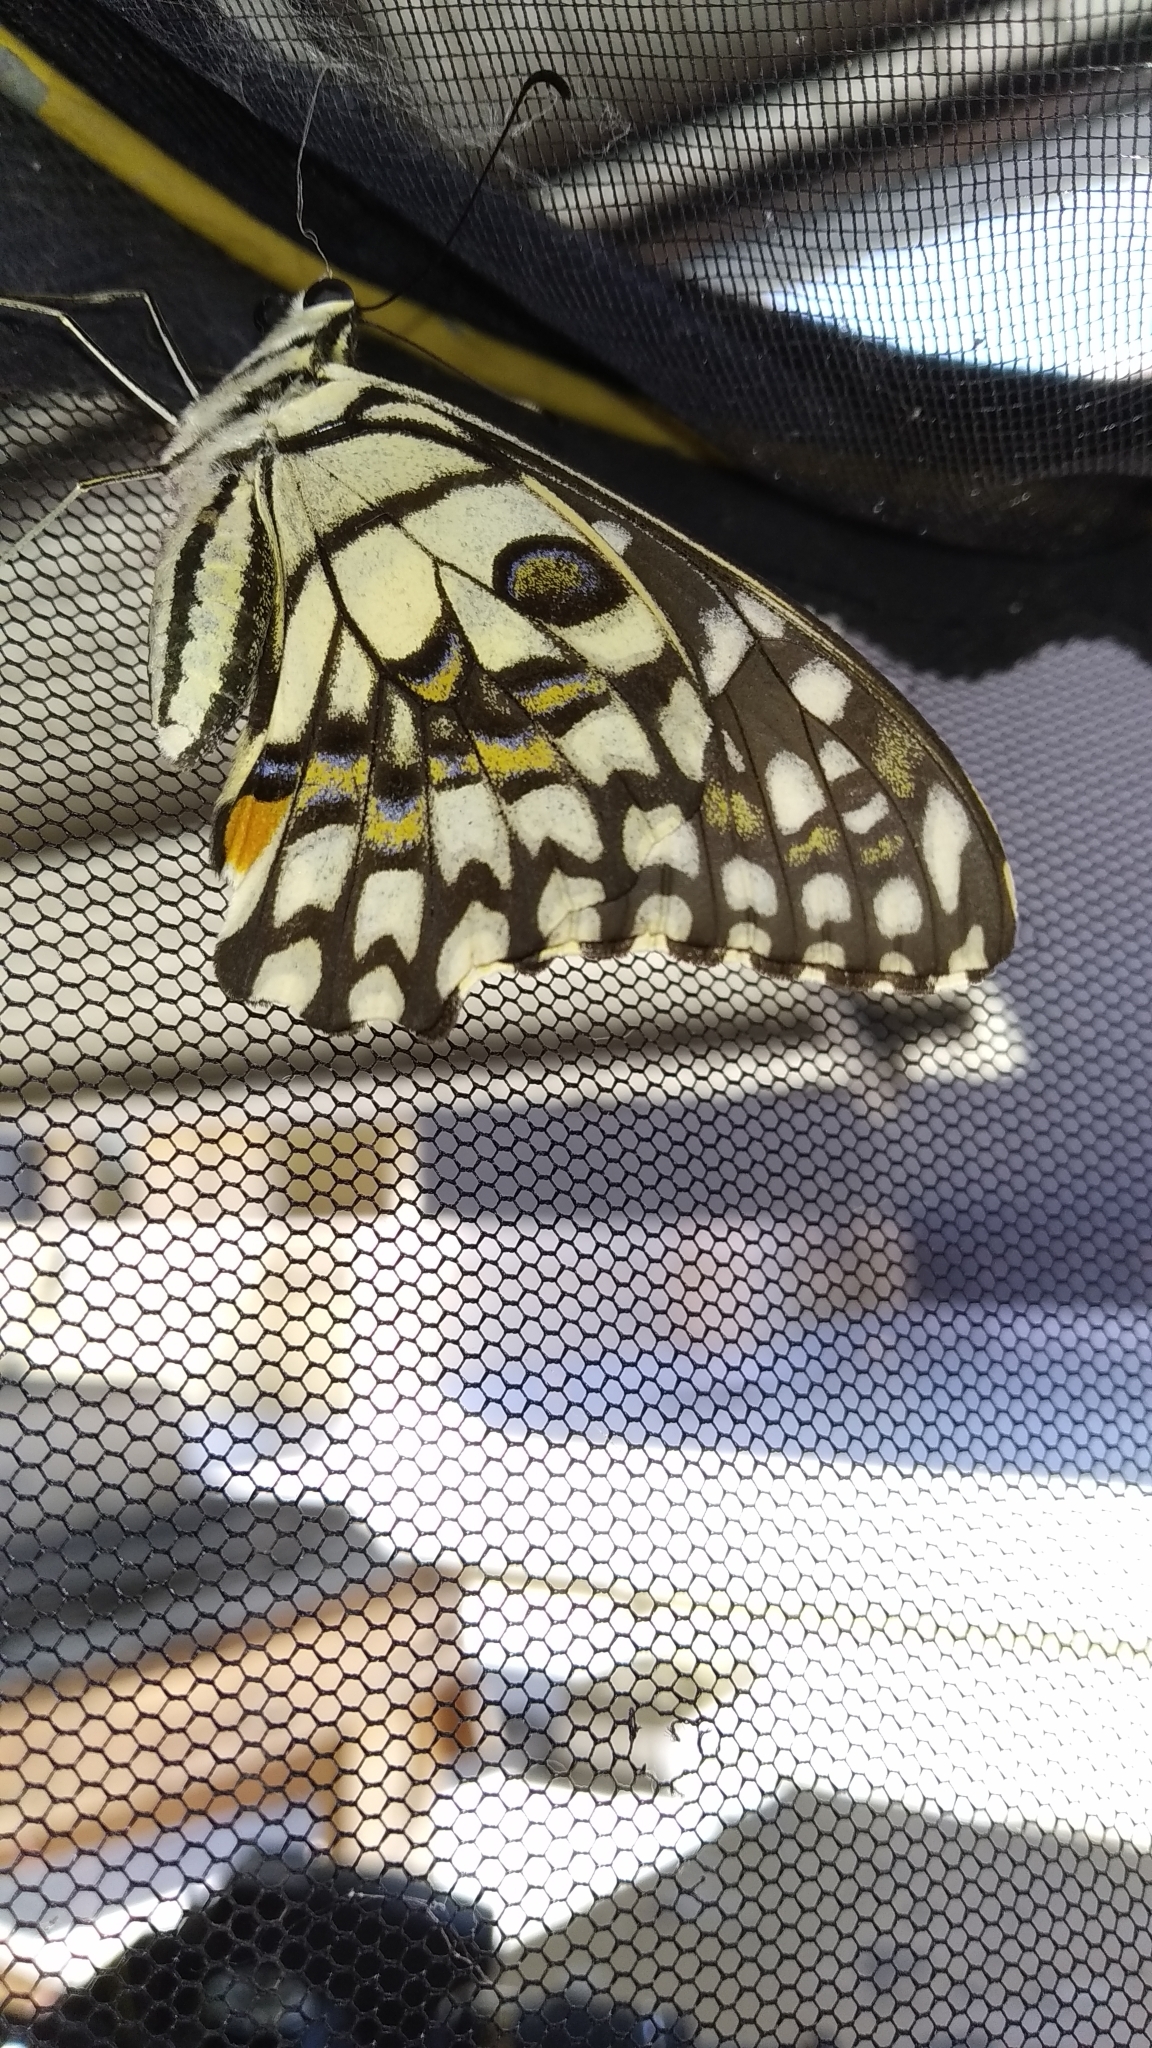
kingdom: Animalia
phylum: Arthropoda
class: Insecta
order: Lepidoptera
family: Papilionidae
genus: Papilio
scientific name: Papilio demoleus
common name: Lime butterfly
